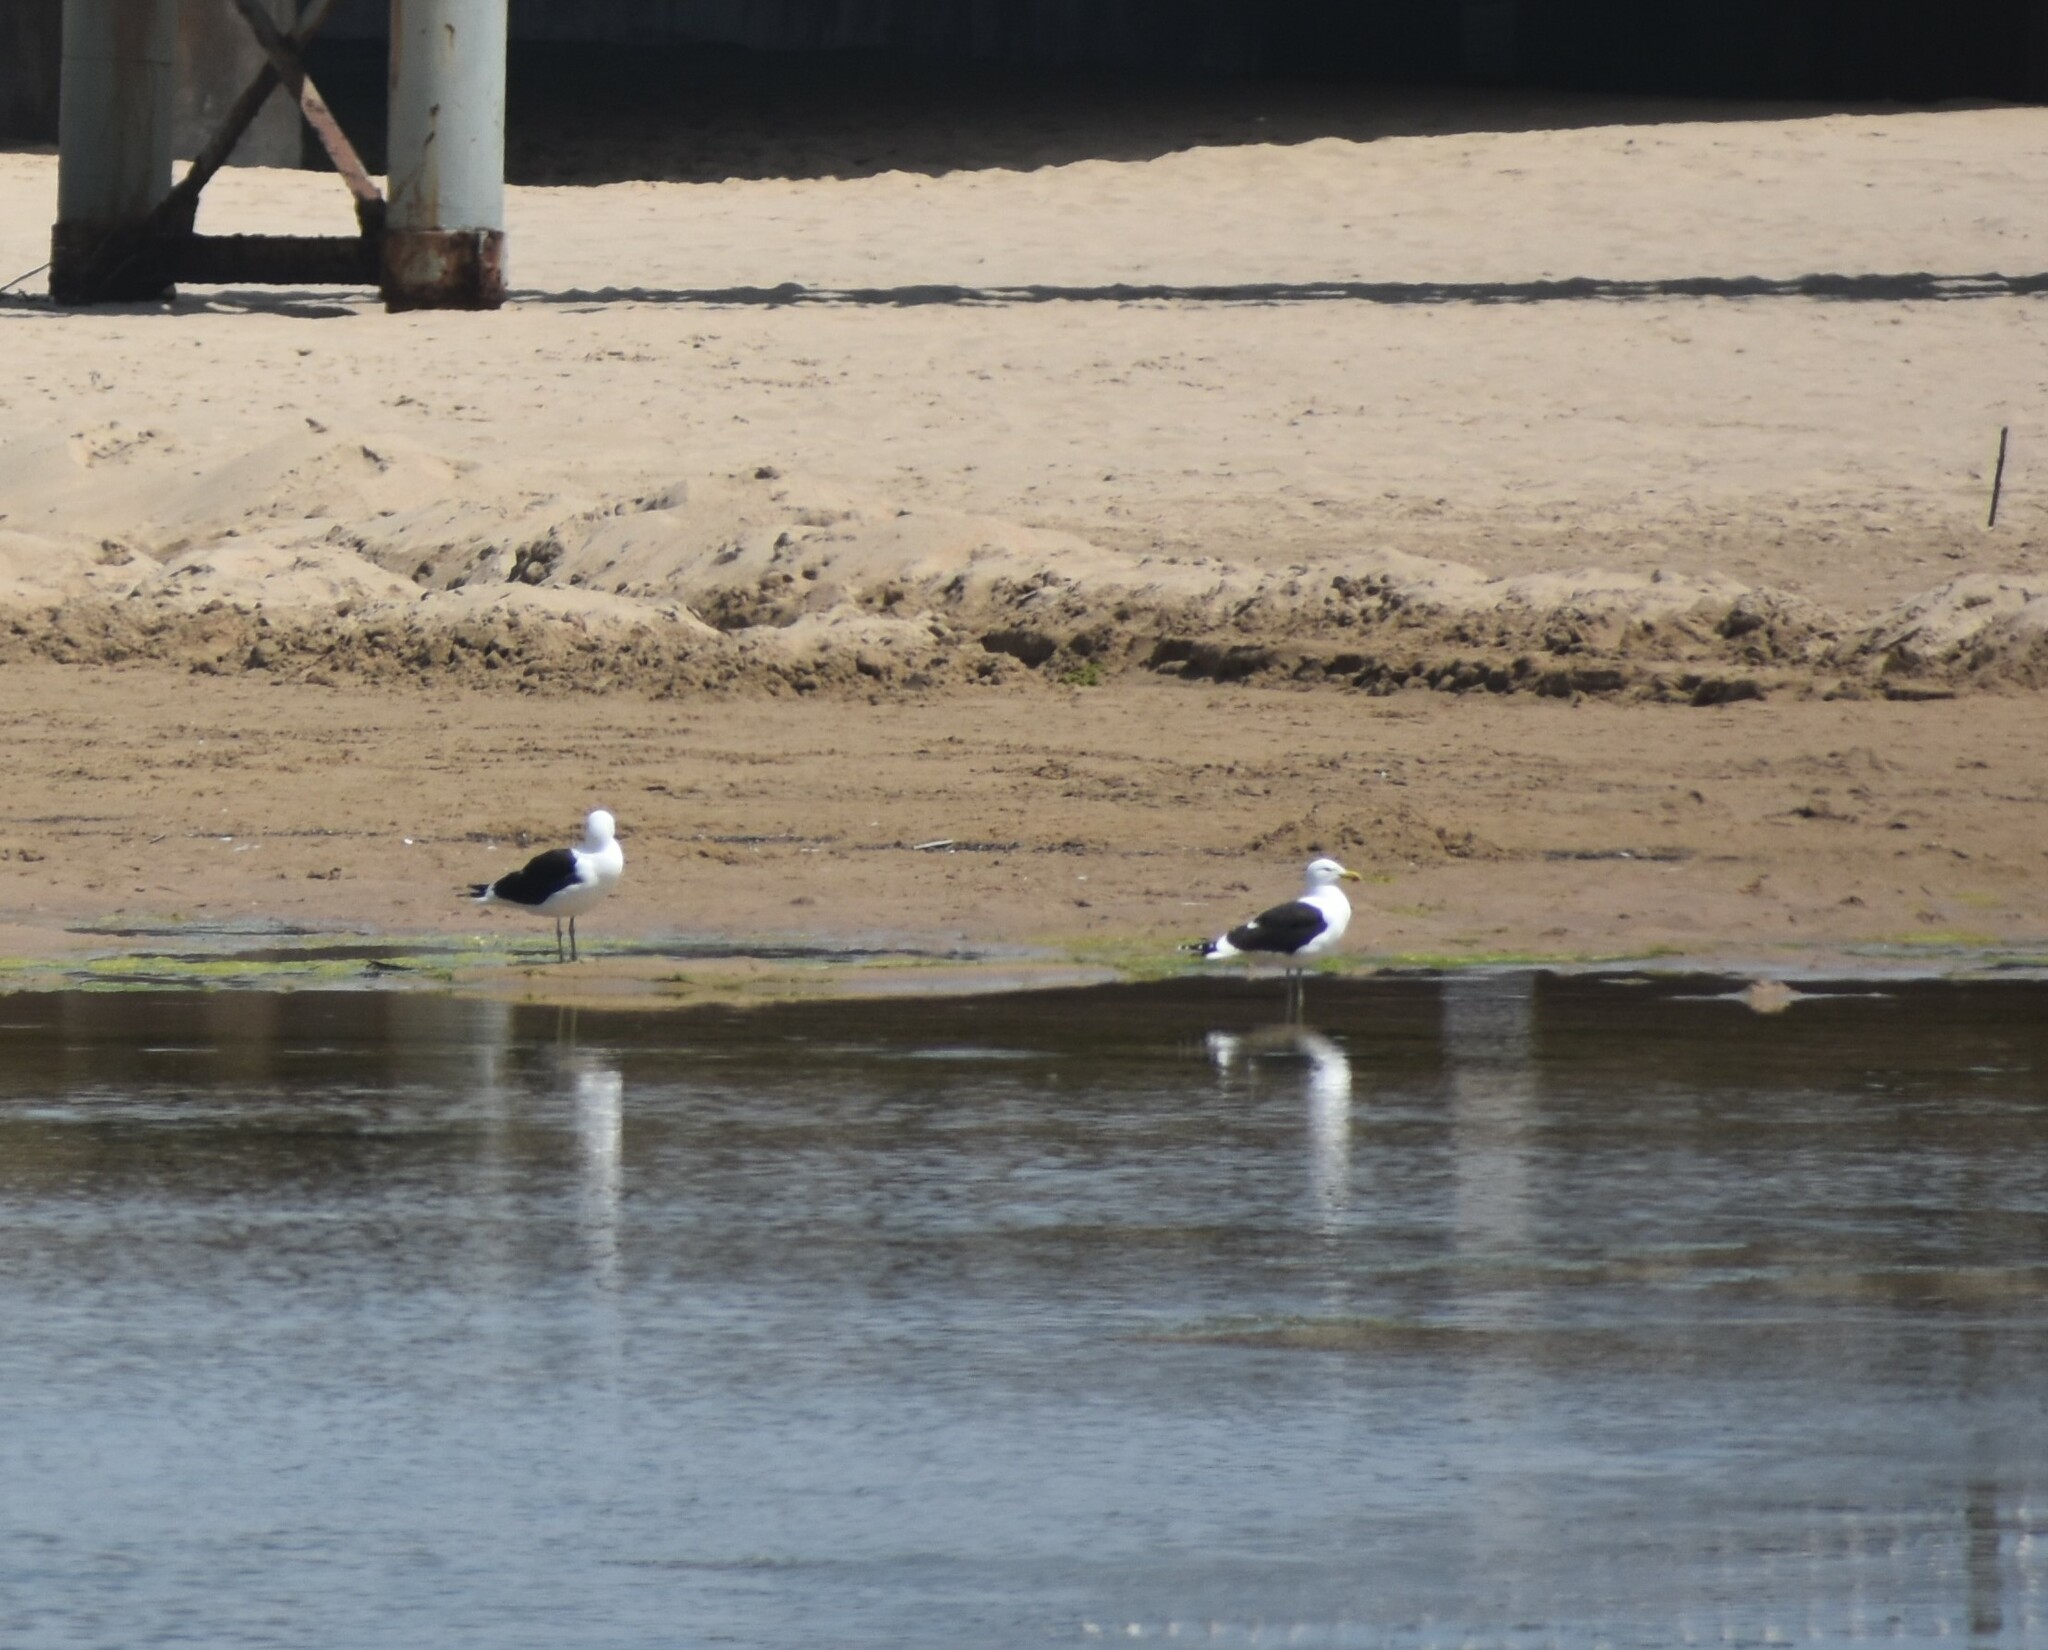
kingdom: Animalia
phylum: Chordata
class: Aves
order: Charadriiformes
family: Laridae
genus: Larus
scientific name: Larus dominicanus
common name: Kelp gull
